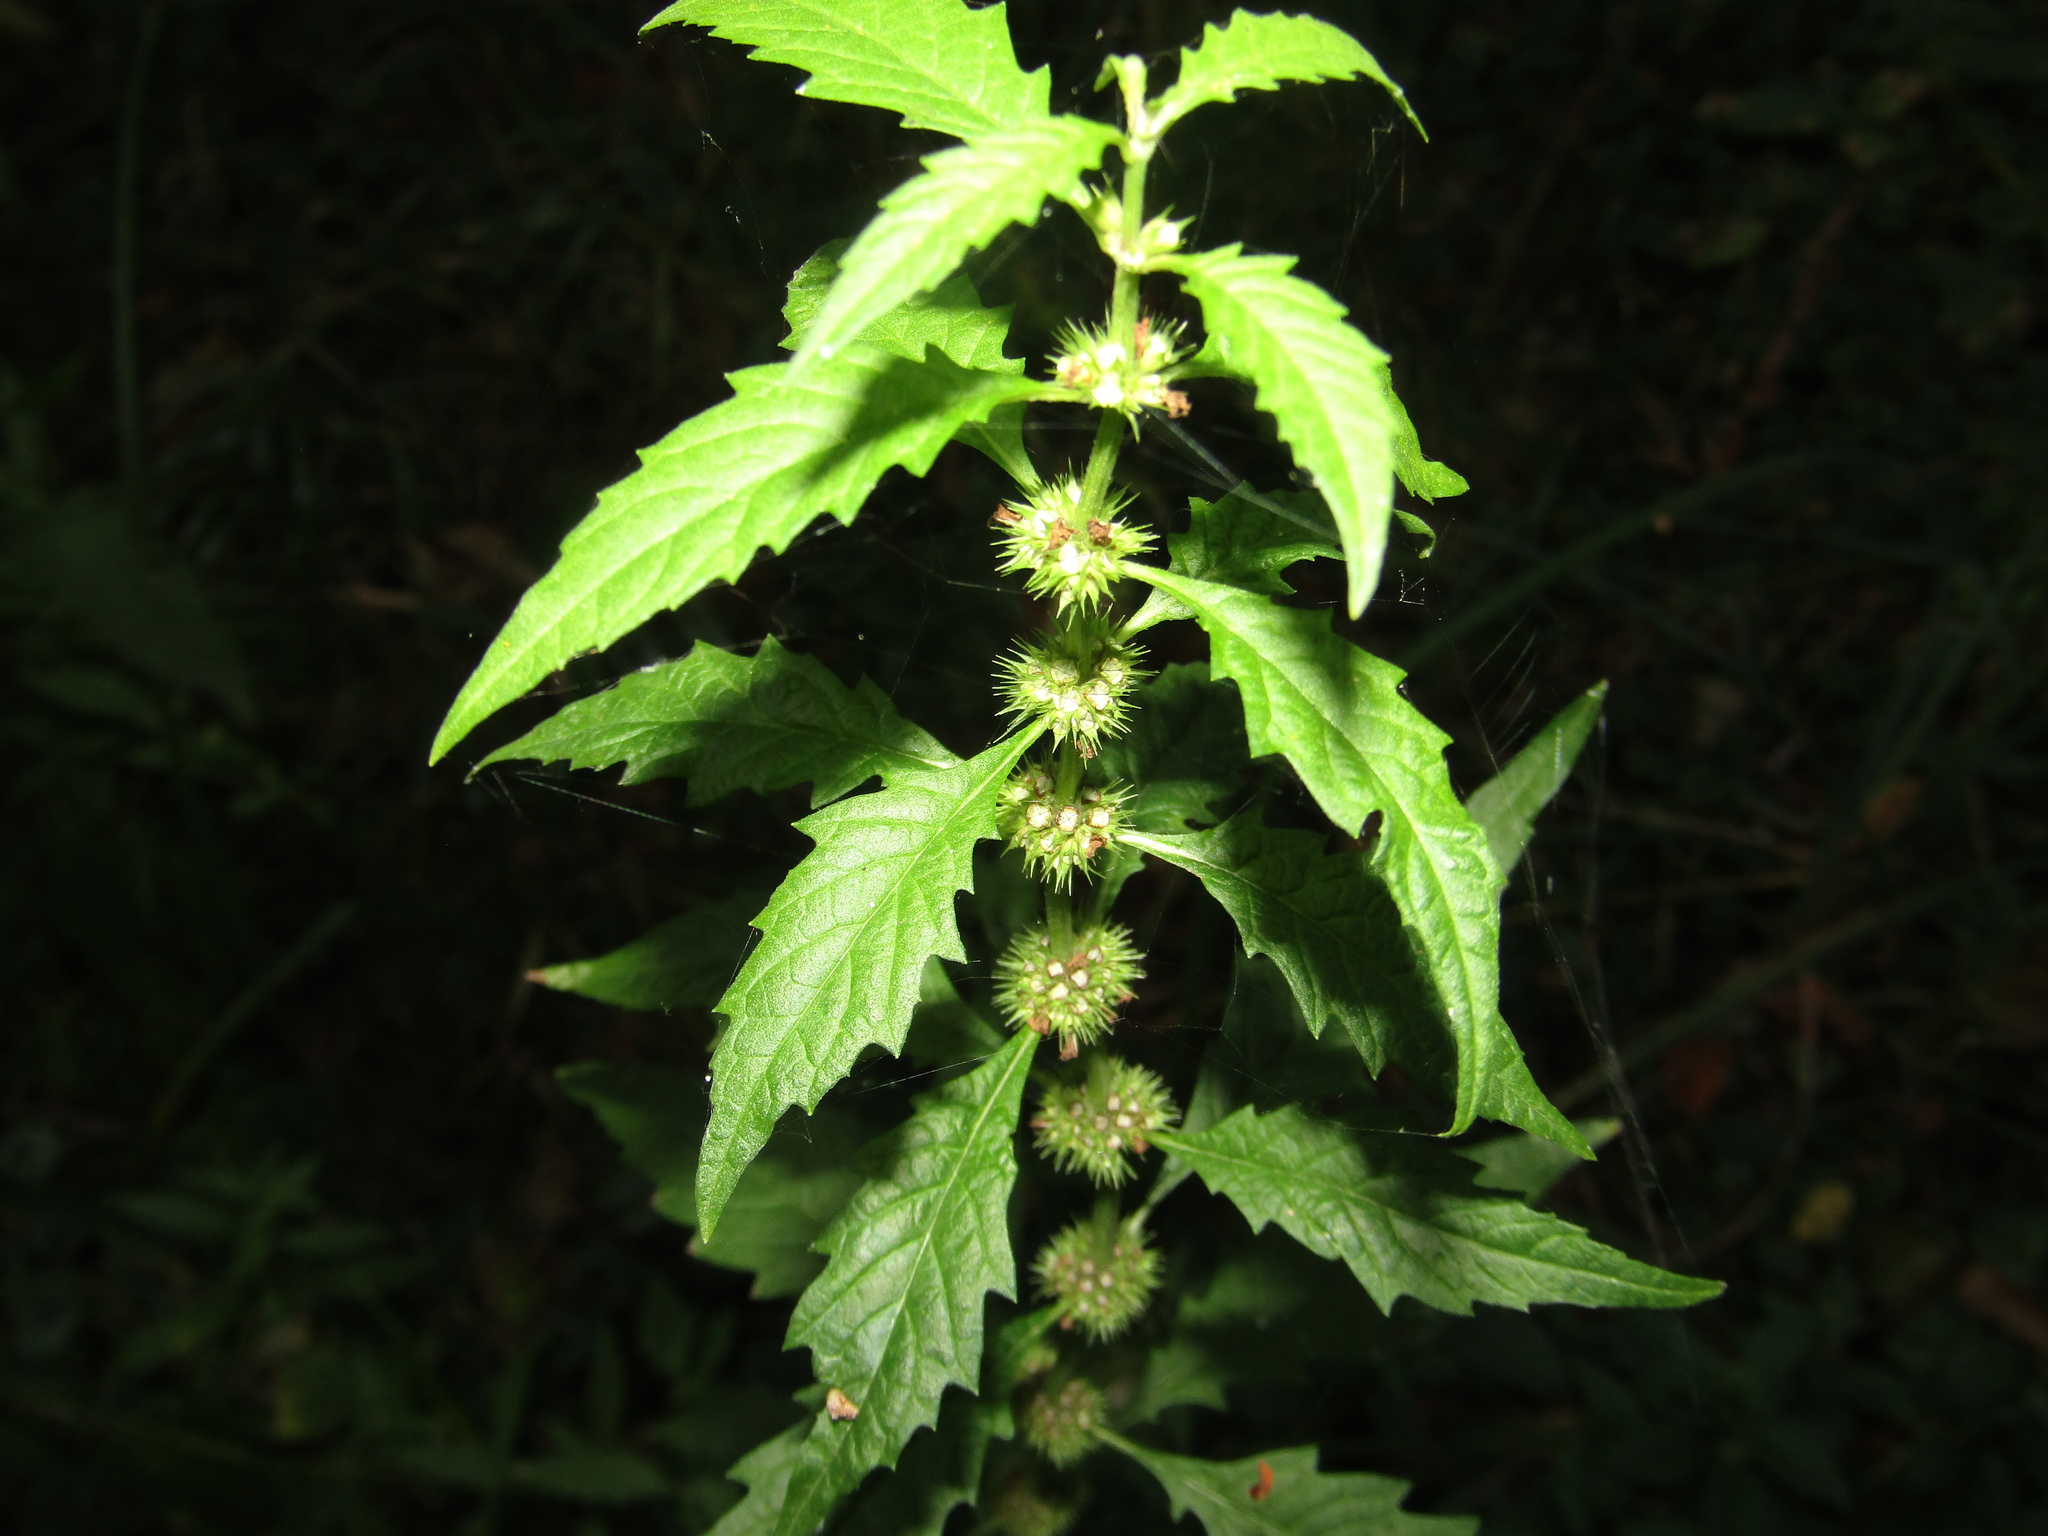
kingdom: Plantae
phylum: Tracheophyta
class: Magnoliopsida
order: Lamiales
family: Lamiaceae
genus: Lycopus
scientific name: Lycopus europaeus
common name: European bugleweed
